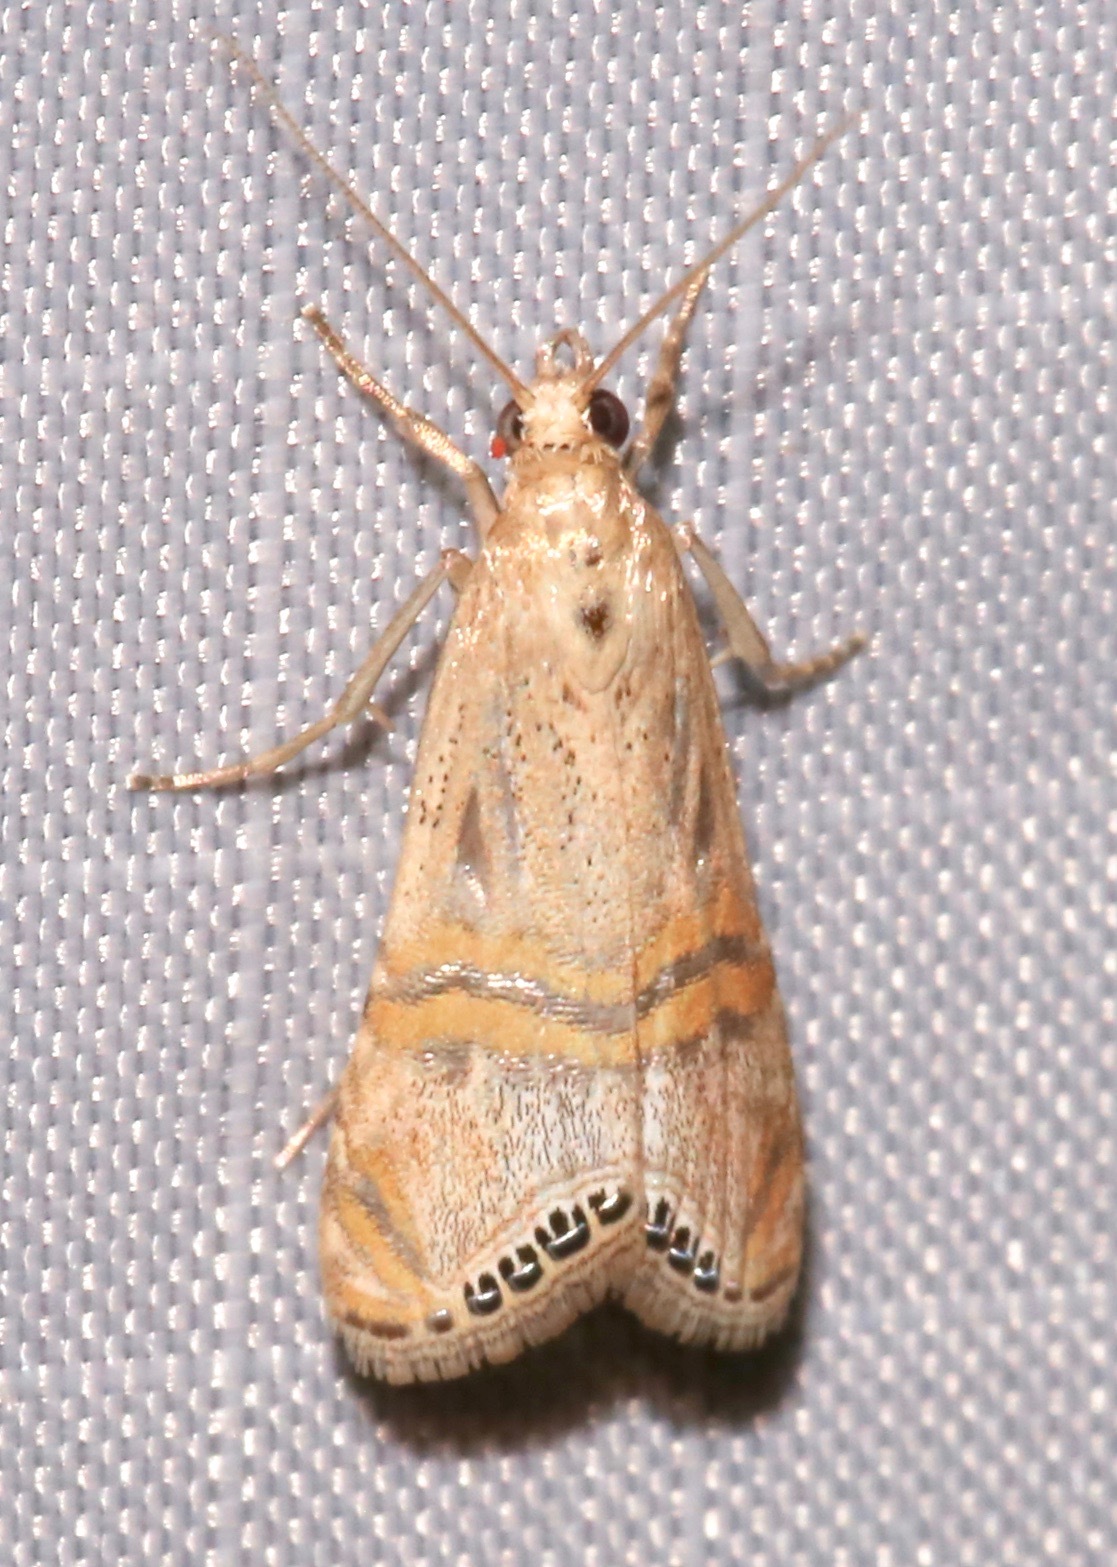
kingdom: Animalia
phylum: Arthropoda
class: Insecta
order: Lepidoptera
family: Crambidae
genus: Euchromius
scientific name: Euchromius ocellea
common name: Necklace veneer moth
